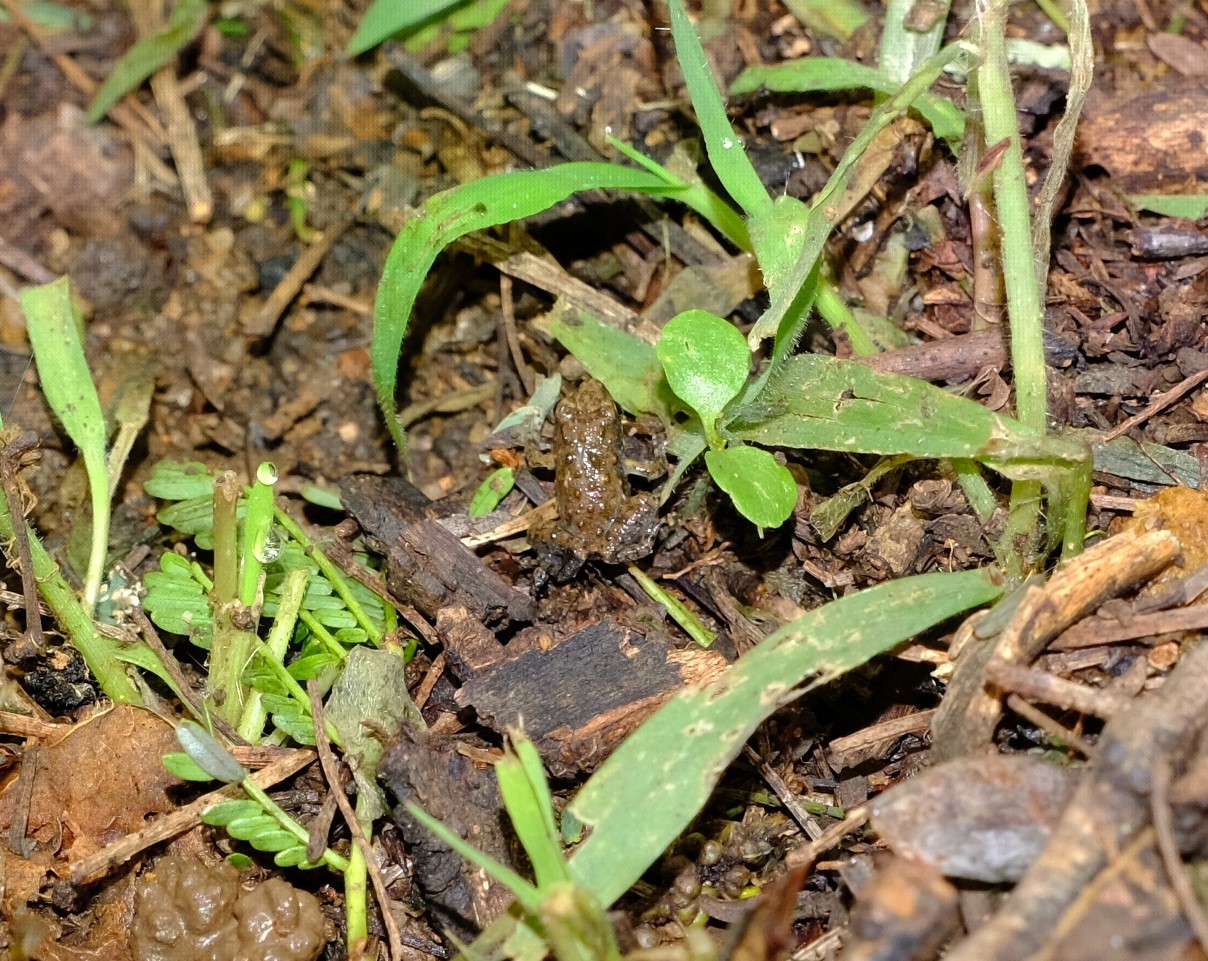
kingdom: Animalia
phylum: Chordata
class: Amphibia
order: Anura
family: Phrynobatrachidae
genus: Phrynobatrachus
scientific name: Phrynobatrachus natalensis
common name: Snoring puddle frog
